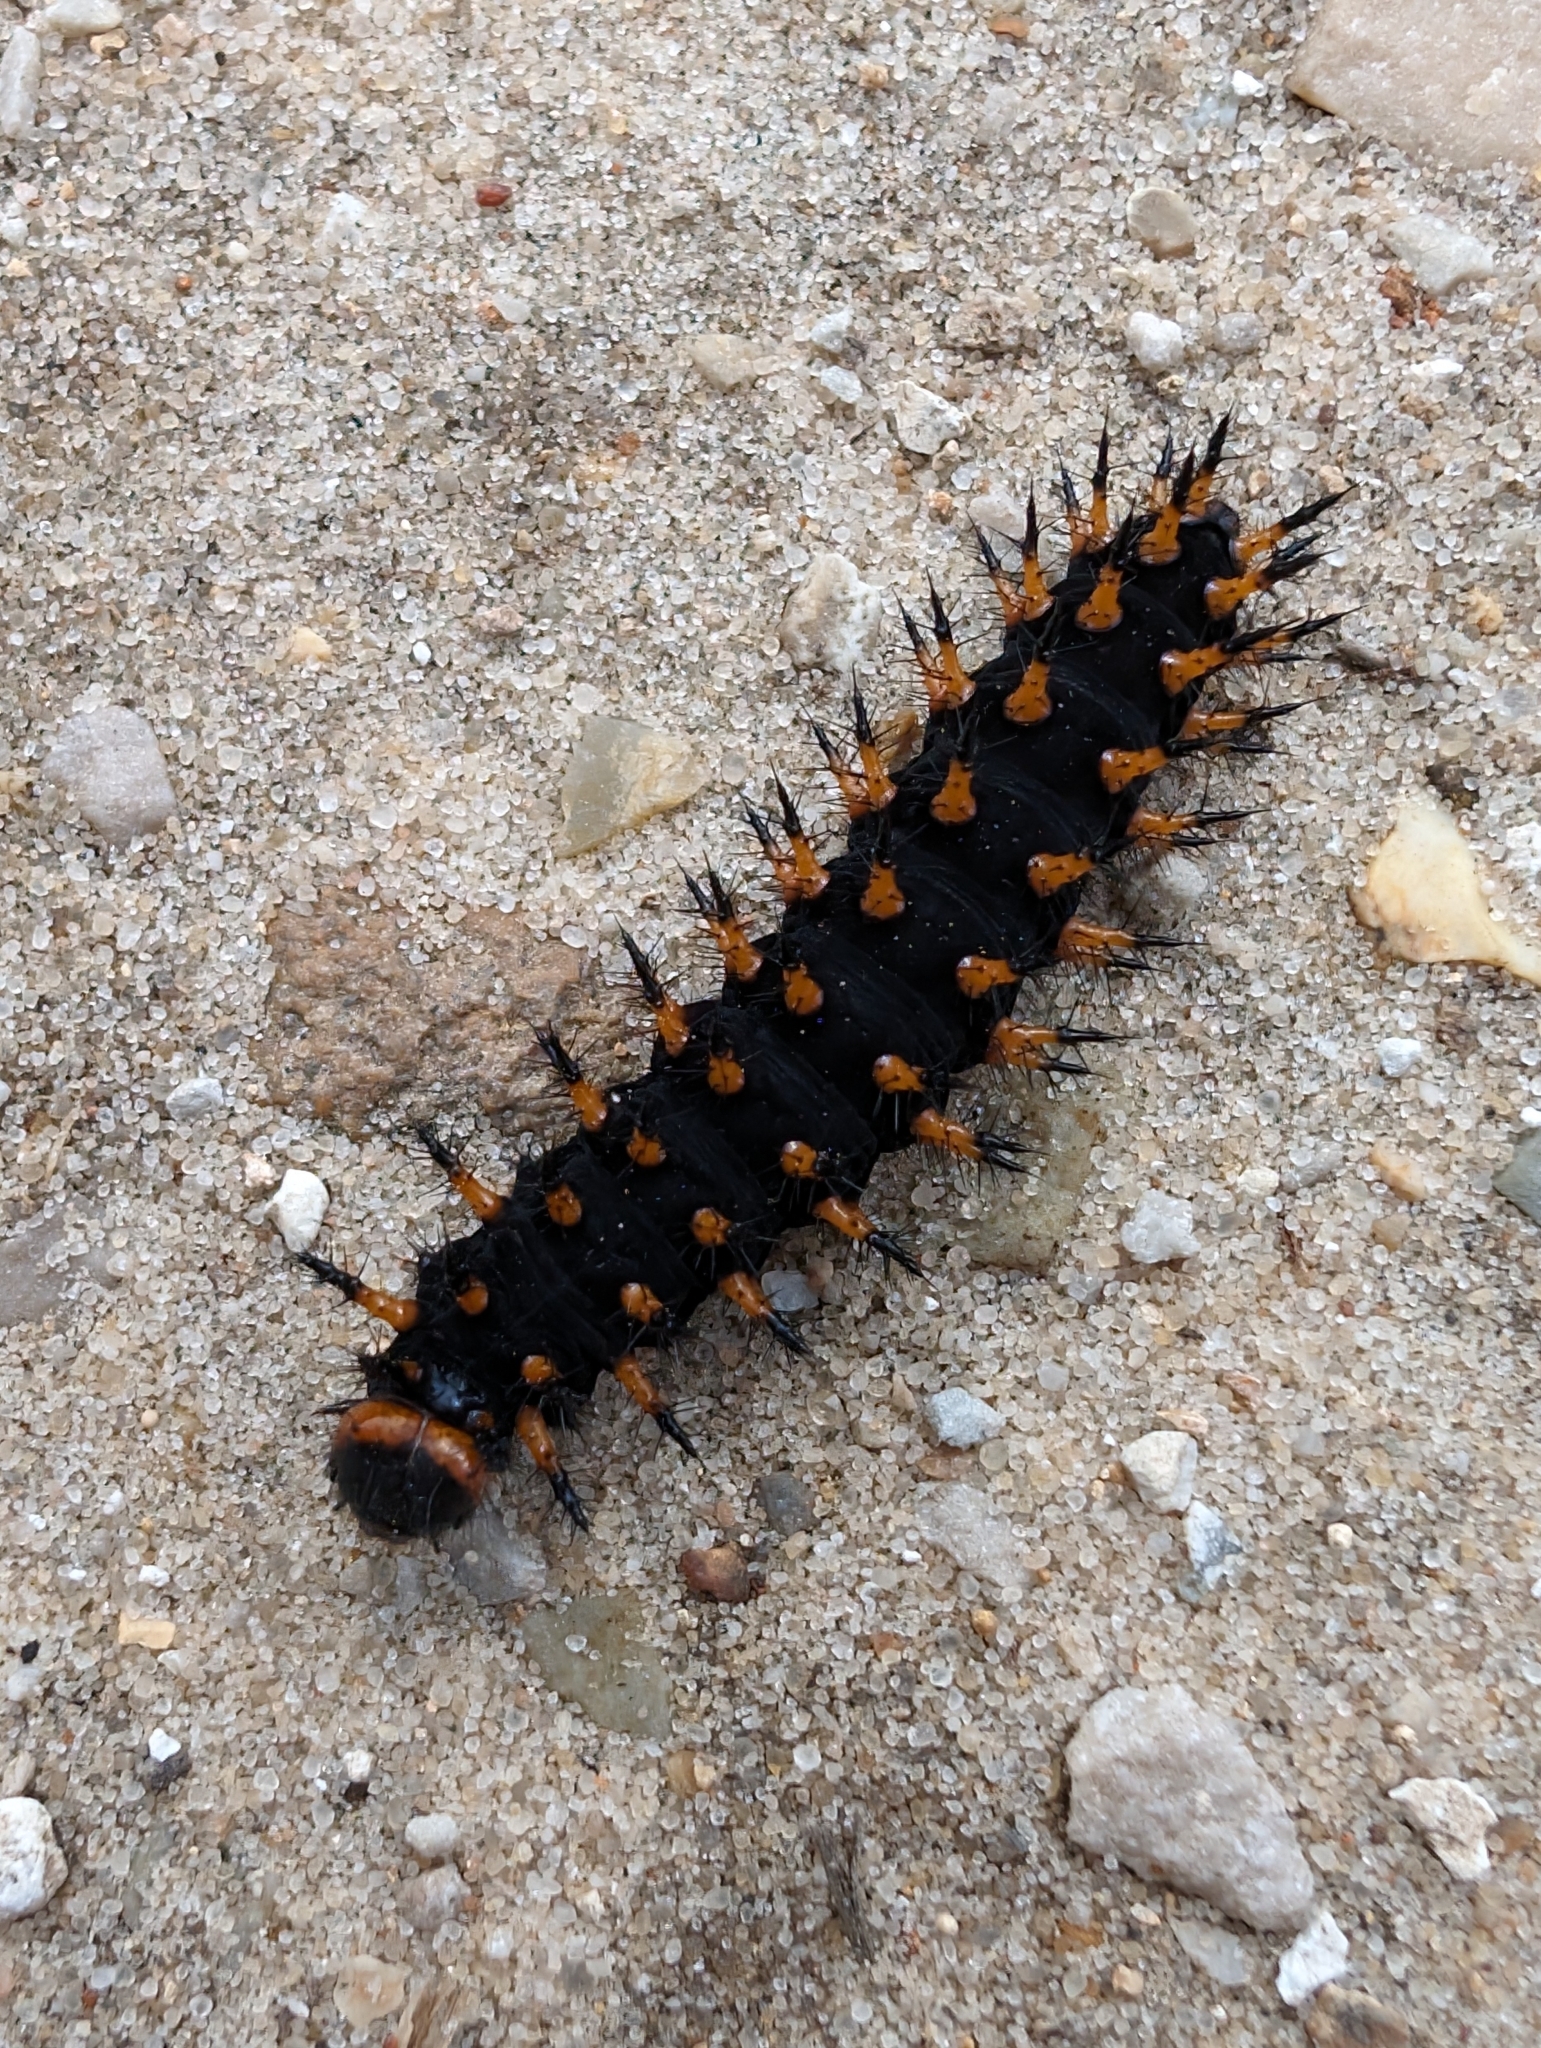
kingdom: Animalia
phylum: Arthropoda
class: Insecta
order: Lepidoptera
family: Nymphalidae
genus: Speyeria
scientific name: Speyeria cybele
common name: Great spangled fritillary
